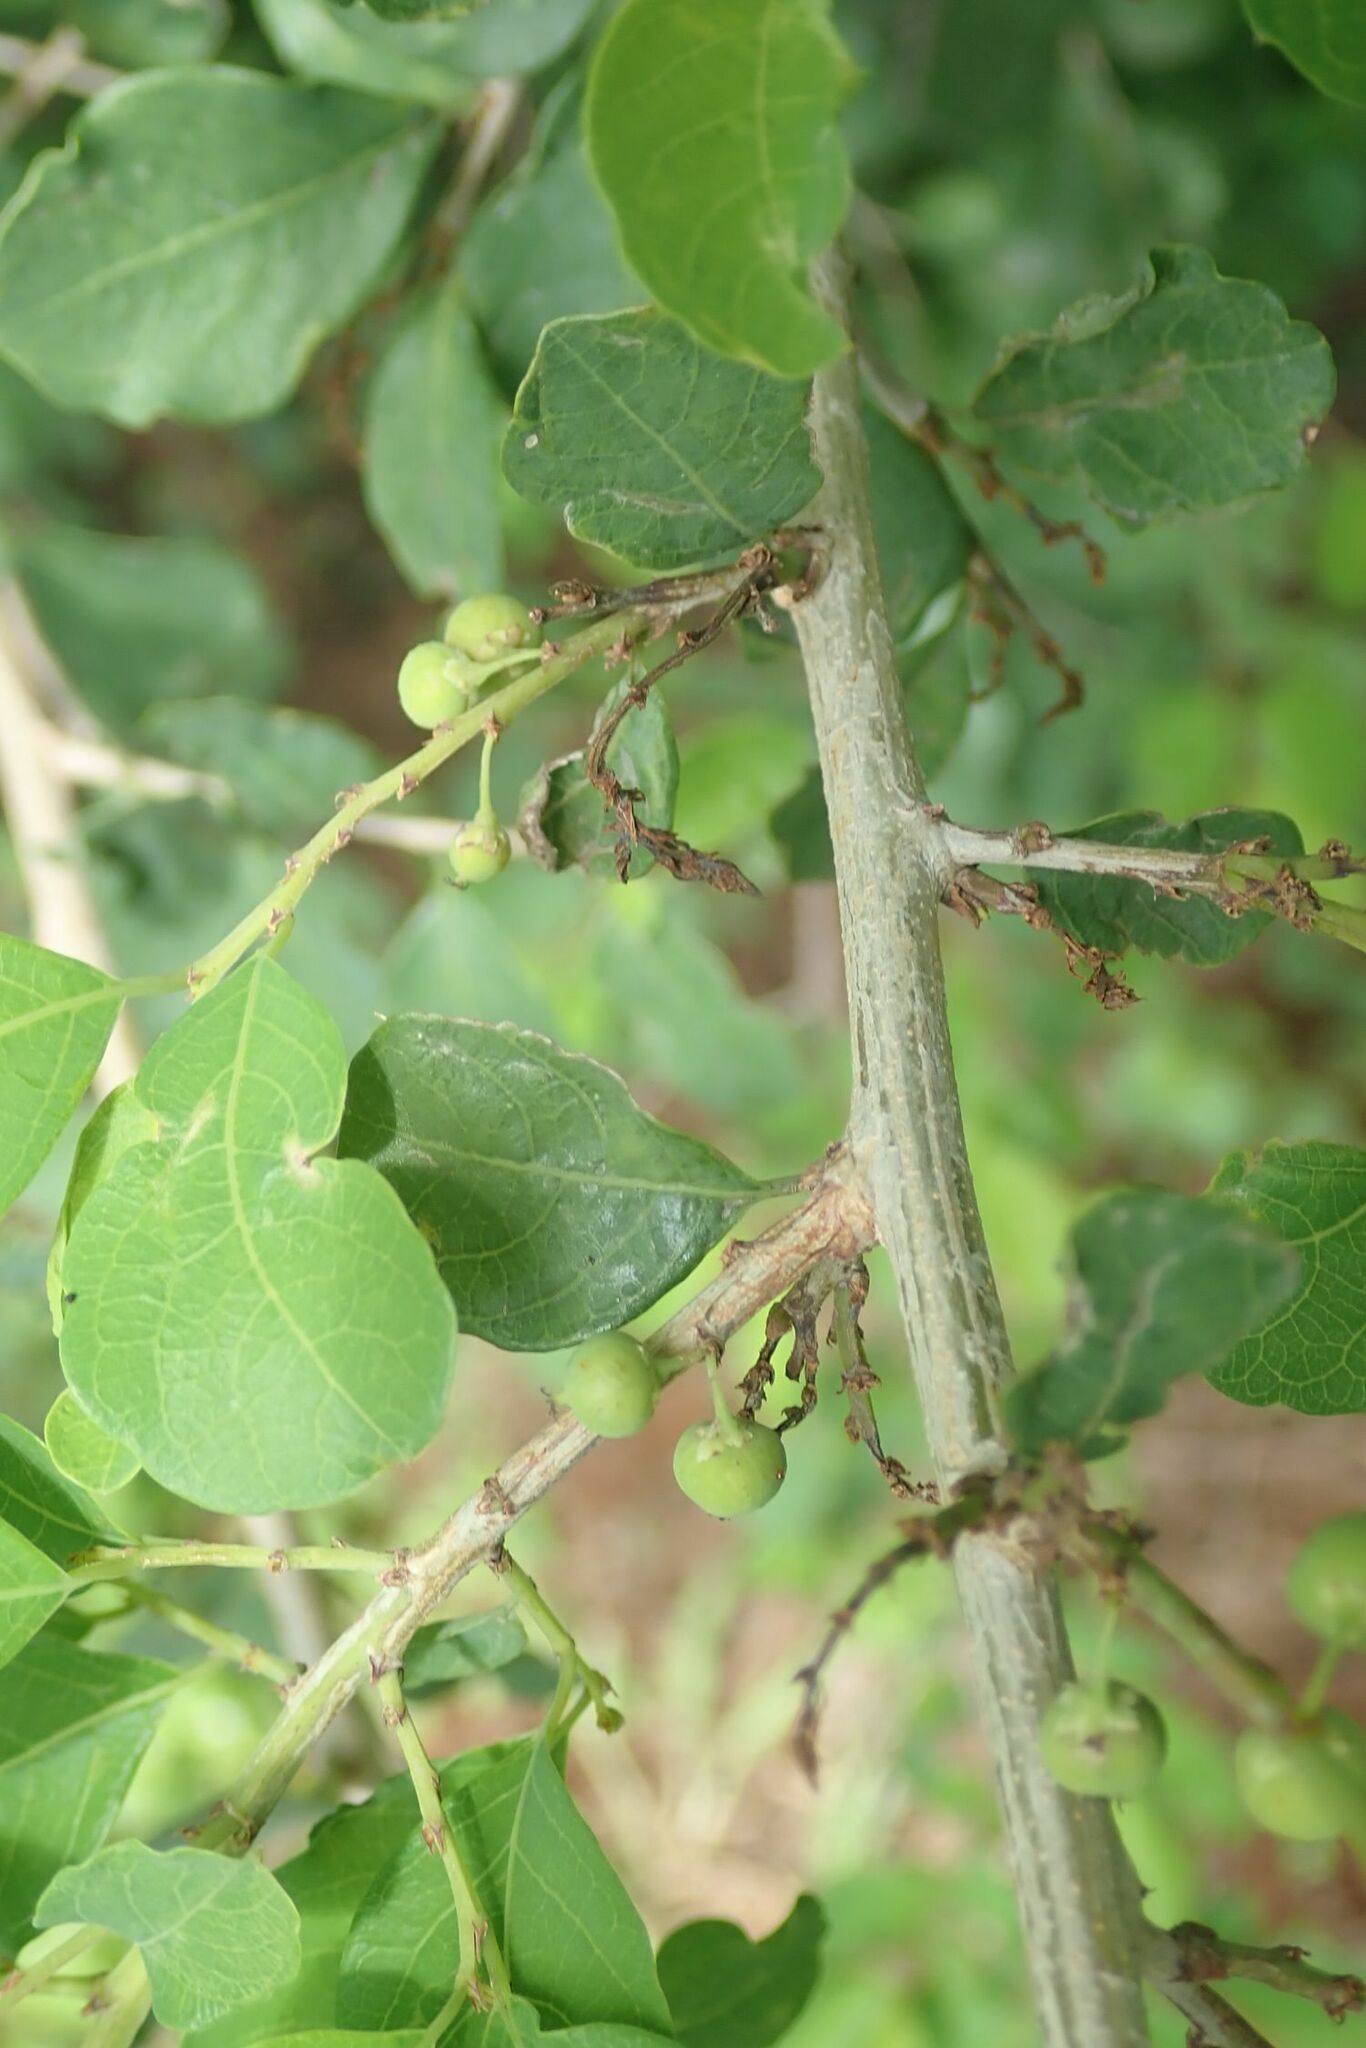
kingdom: Plantae
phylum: Tracheophyta
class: Magnoliopsida
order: Malpighiales
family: Phyllanthaceae
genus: Flueggea
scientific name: Flueggea virosa
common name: Common bushweed
